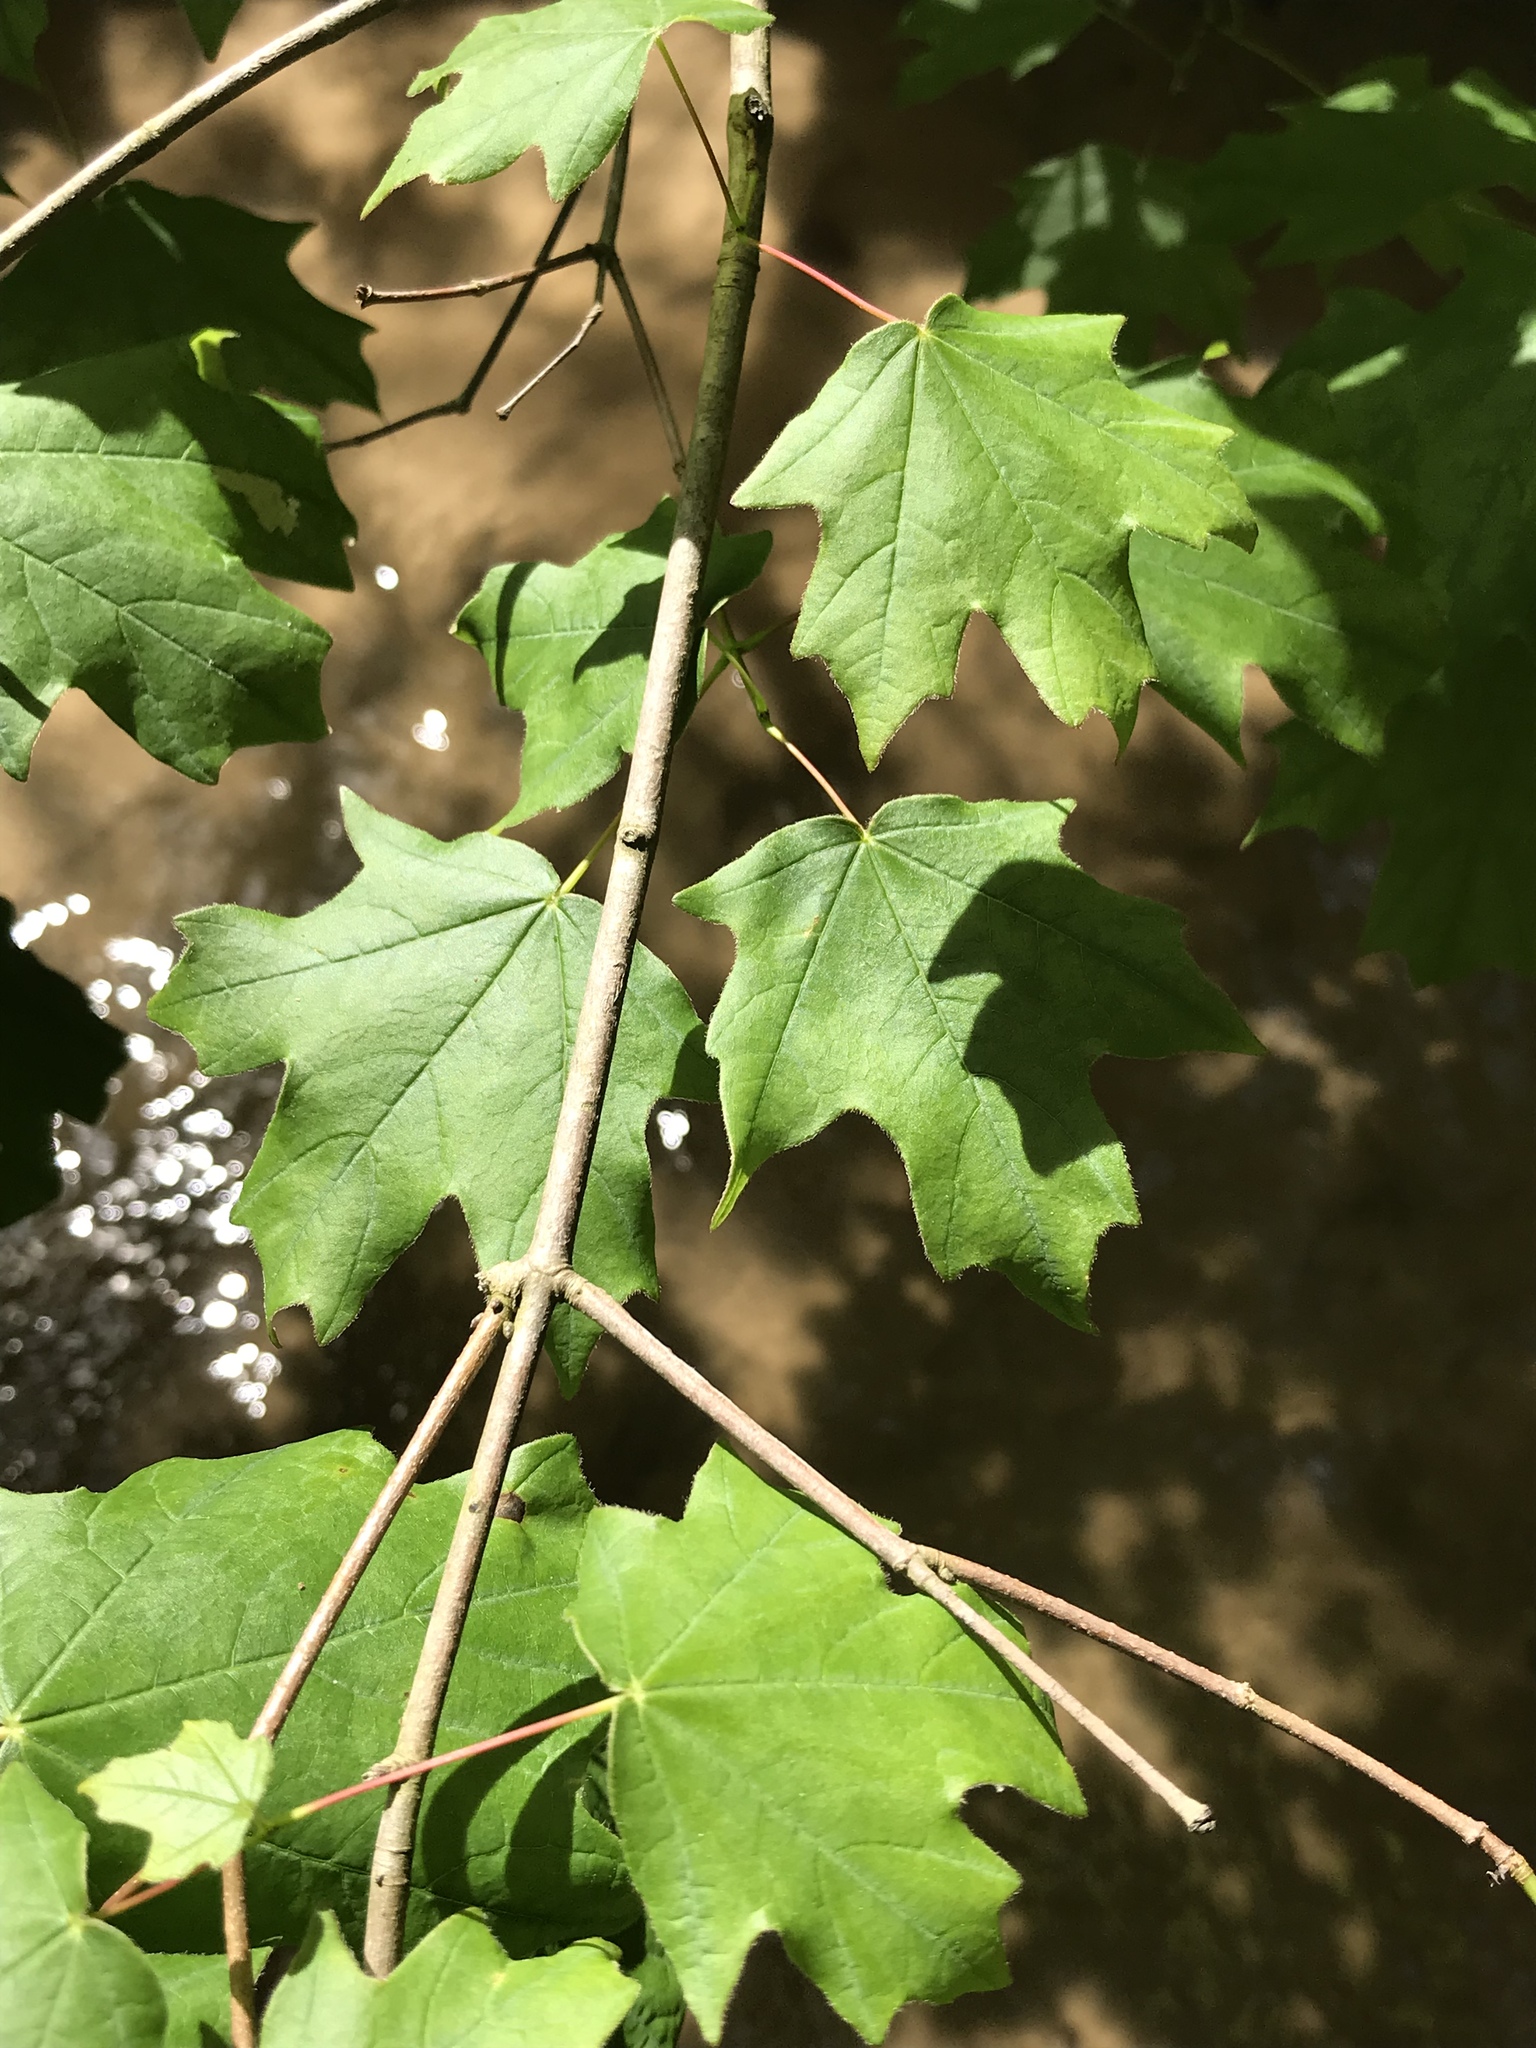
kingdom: Plantae
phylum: Tracheophyta
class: Magnoliopsida
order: Sapindales
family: Sapindaceae
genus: Acer
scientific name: Acer leucoderme
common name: Chalk maple
